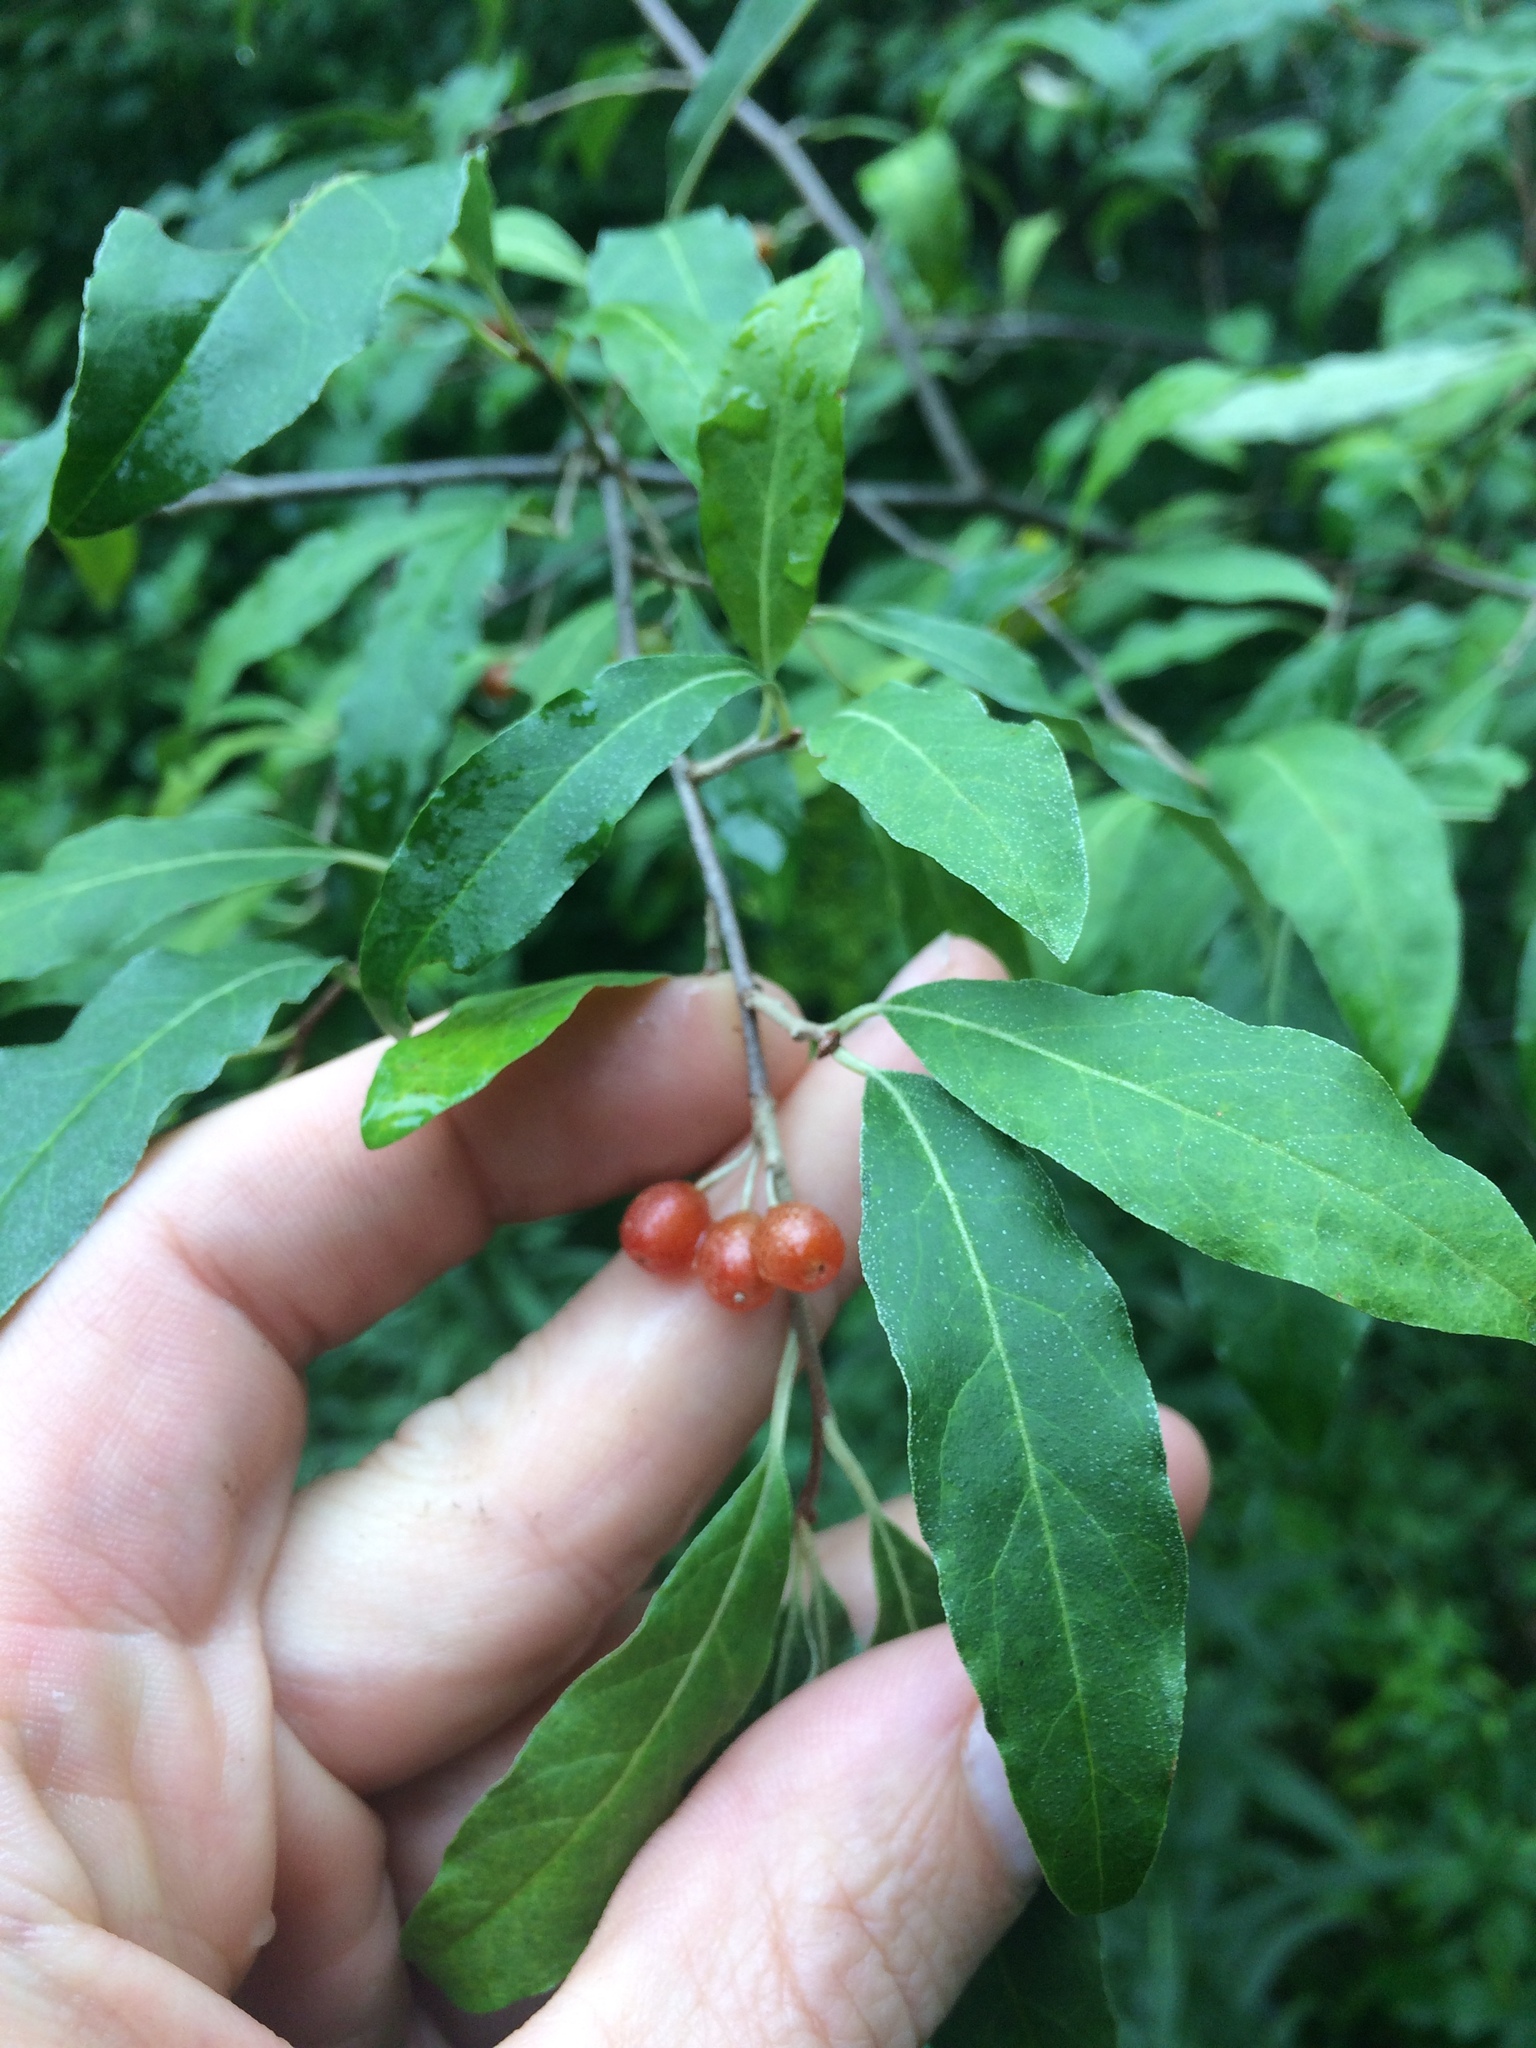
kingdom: Plantae
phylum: Tracheophyta
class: Magnoliopsida
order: Rosales
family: Elaeagnaceae
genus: Elaeagnus
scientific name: Elaeagnus umbellata
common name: Autumn olive
